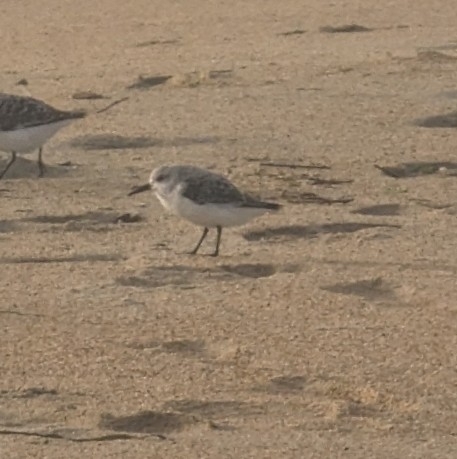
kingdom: Animalia
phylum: Chordata
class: Aves
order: Charadriiformes
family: Scolopacidae
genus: Calidris
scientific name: Calidris alba
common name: Sanderling
